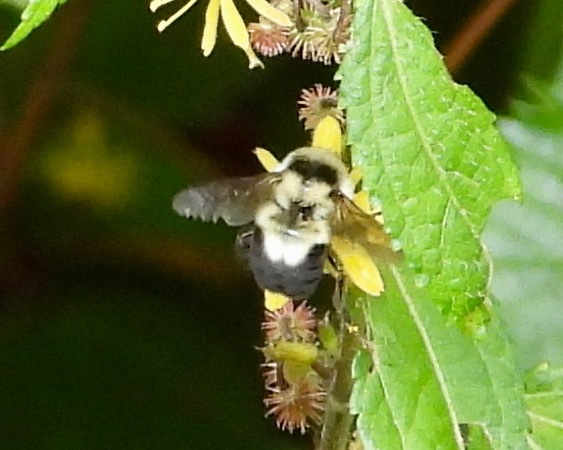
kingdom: Animalia
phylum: Arthropoda
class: Insecta
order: Hymenoptera
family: Apidae
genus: Bombus
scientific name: Bombus wilmattae
